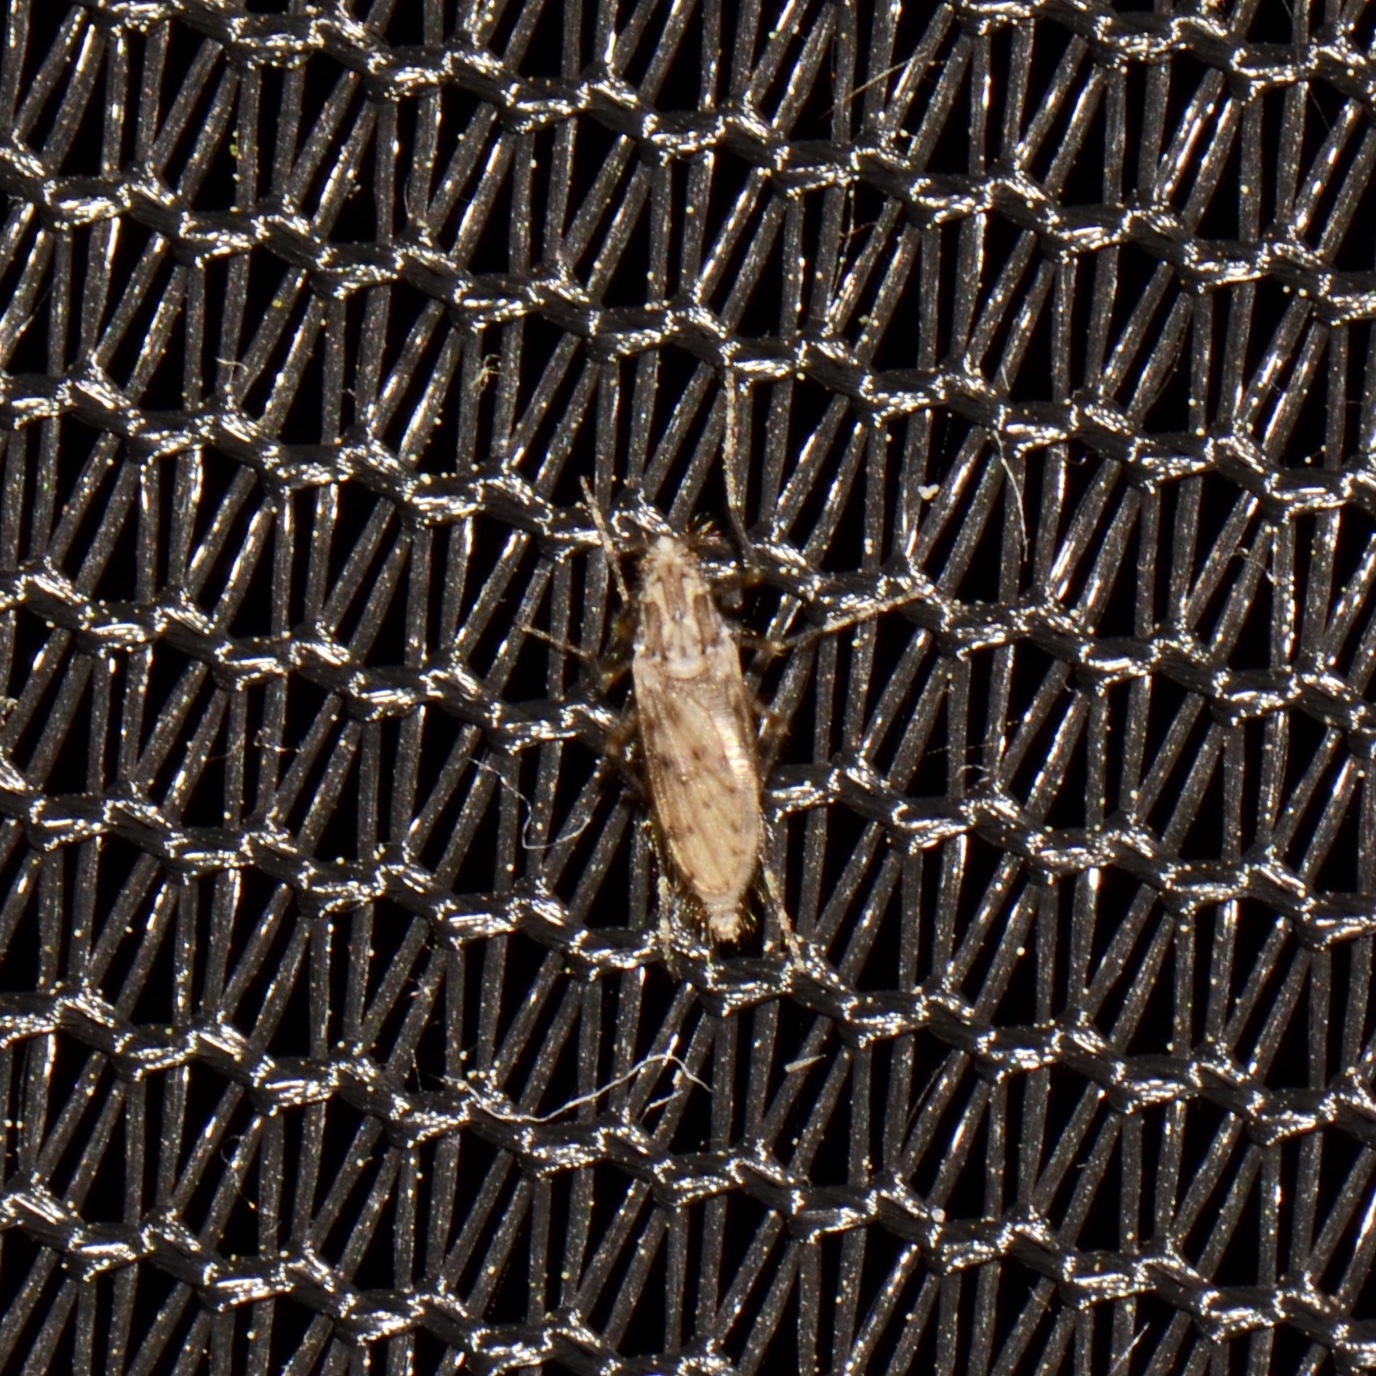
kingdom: Animalia
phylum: Arthropoda
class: Insecta
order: Diptera
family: Chaoboridae
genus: Chaoborus
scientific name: Chaoborus punctipennis
